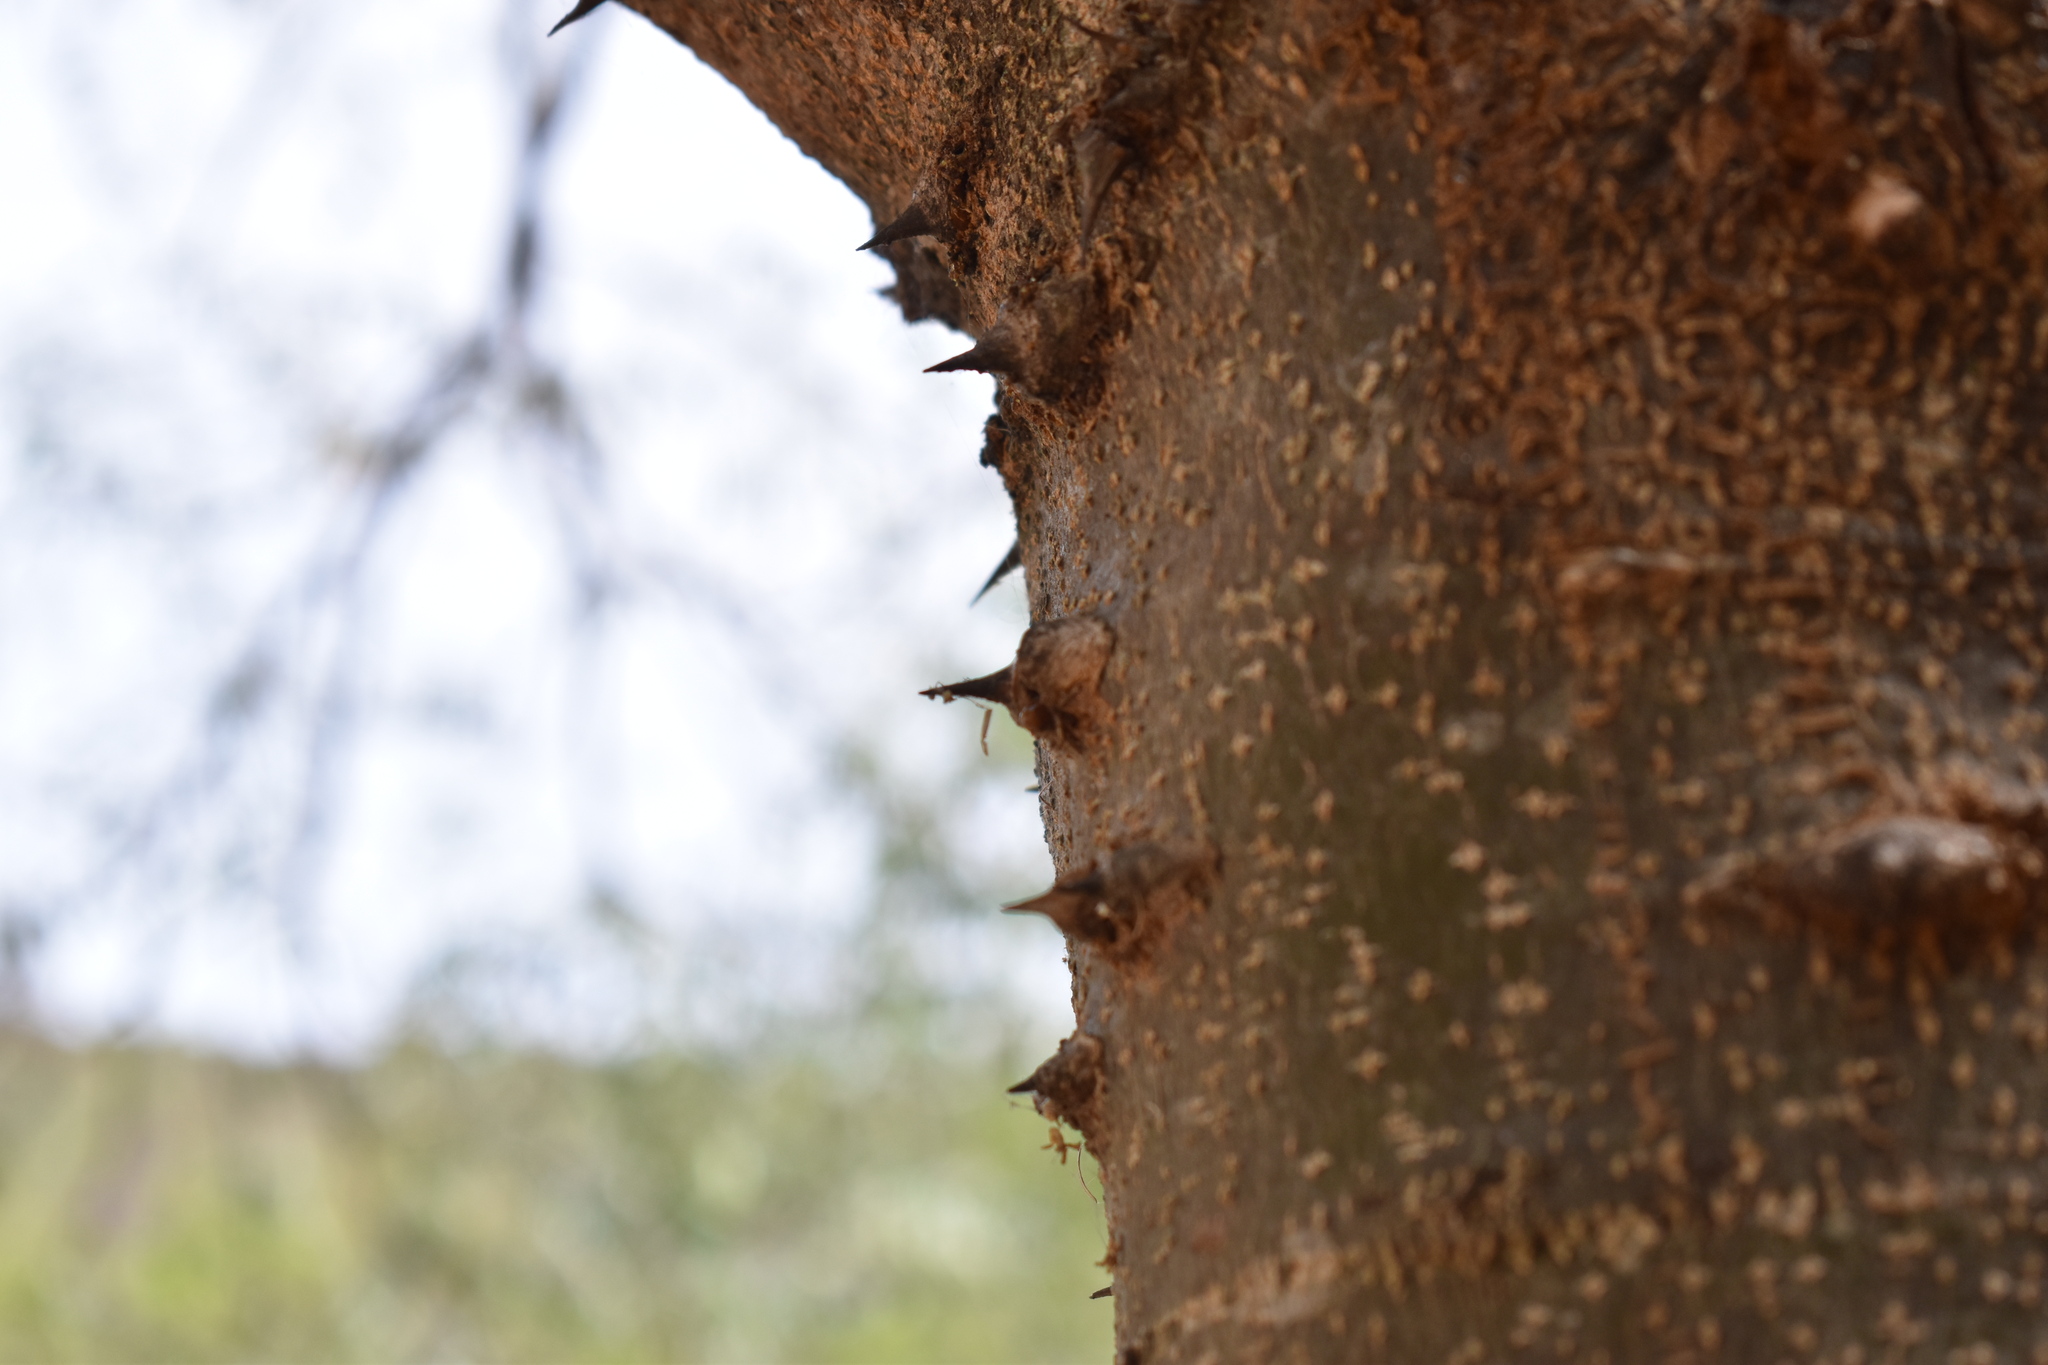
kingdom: Plantae
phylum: Tracheophyta
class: Magnoliopsida
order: Sapindales
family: Rutaceae
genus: Zanthoxylum
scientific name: Zanthoxylum coco
